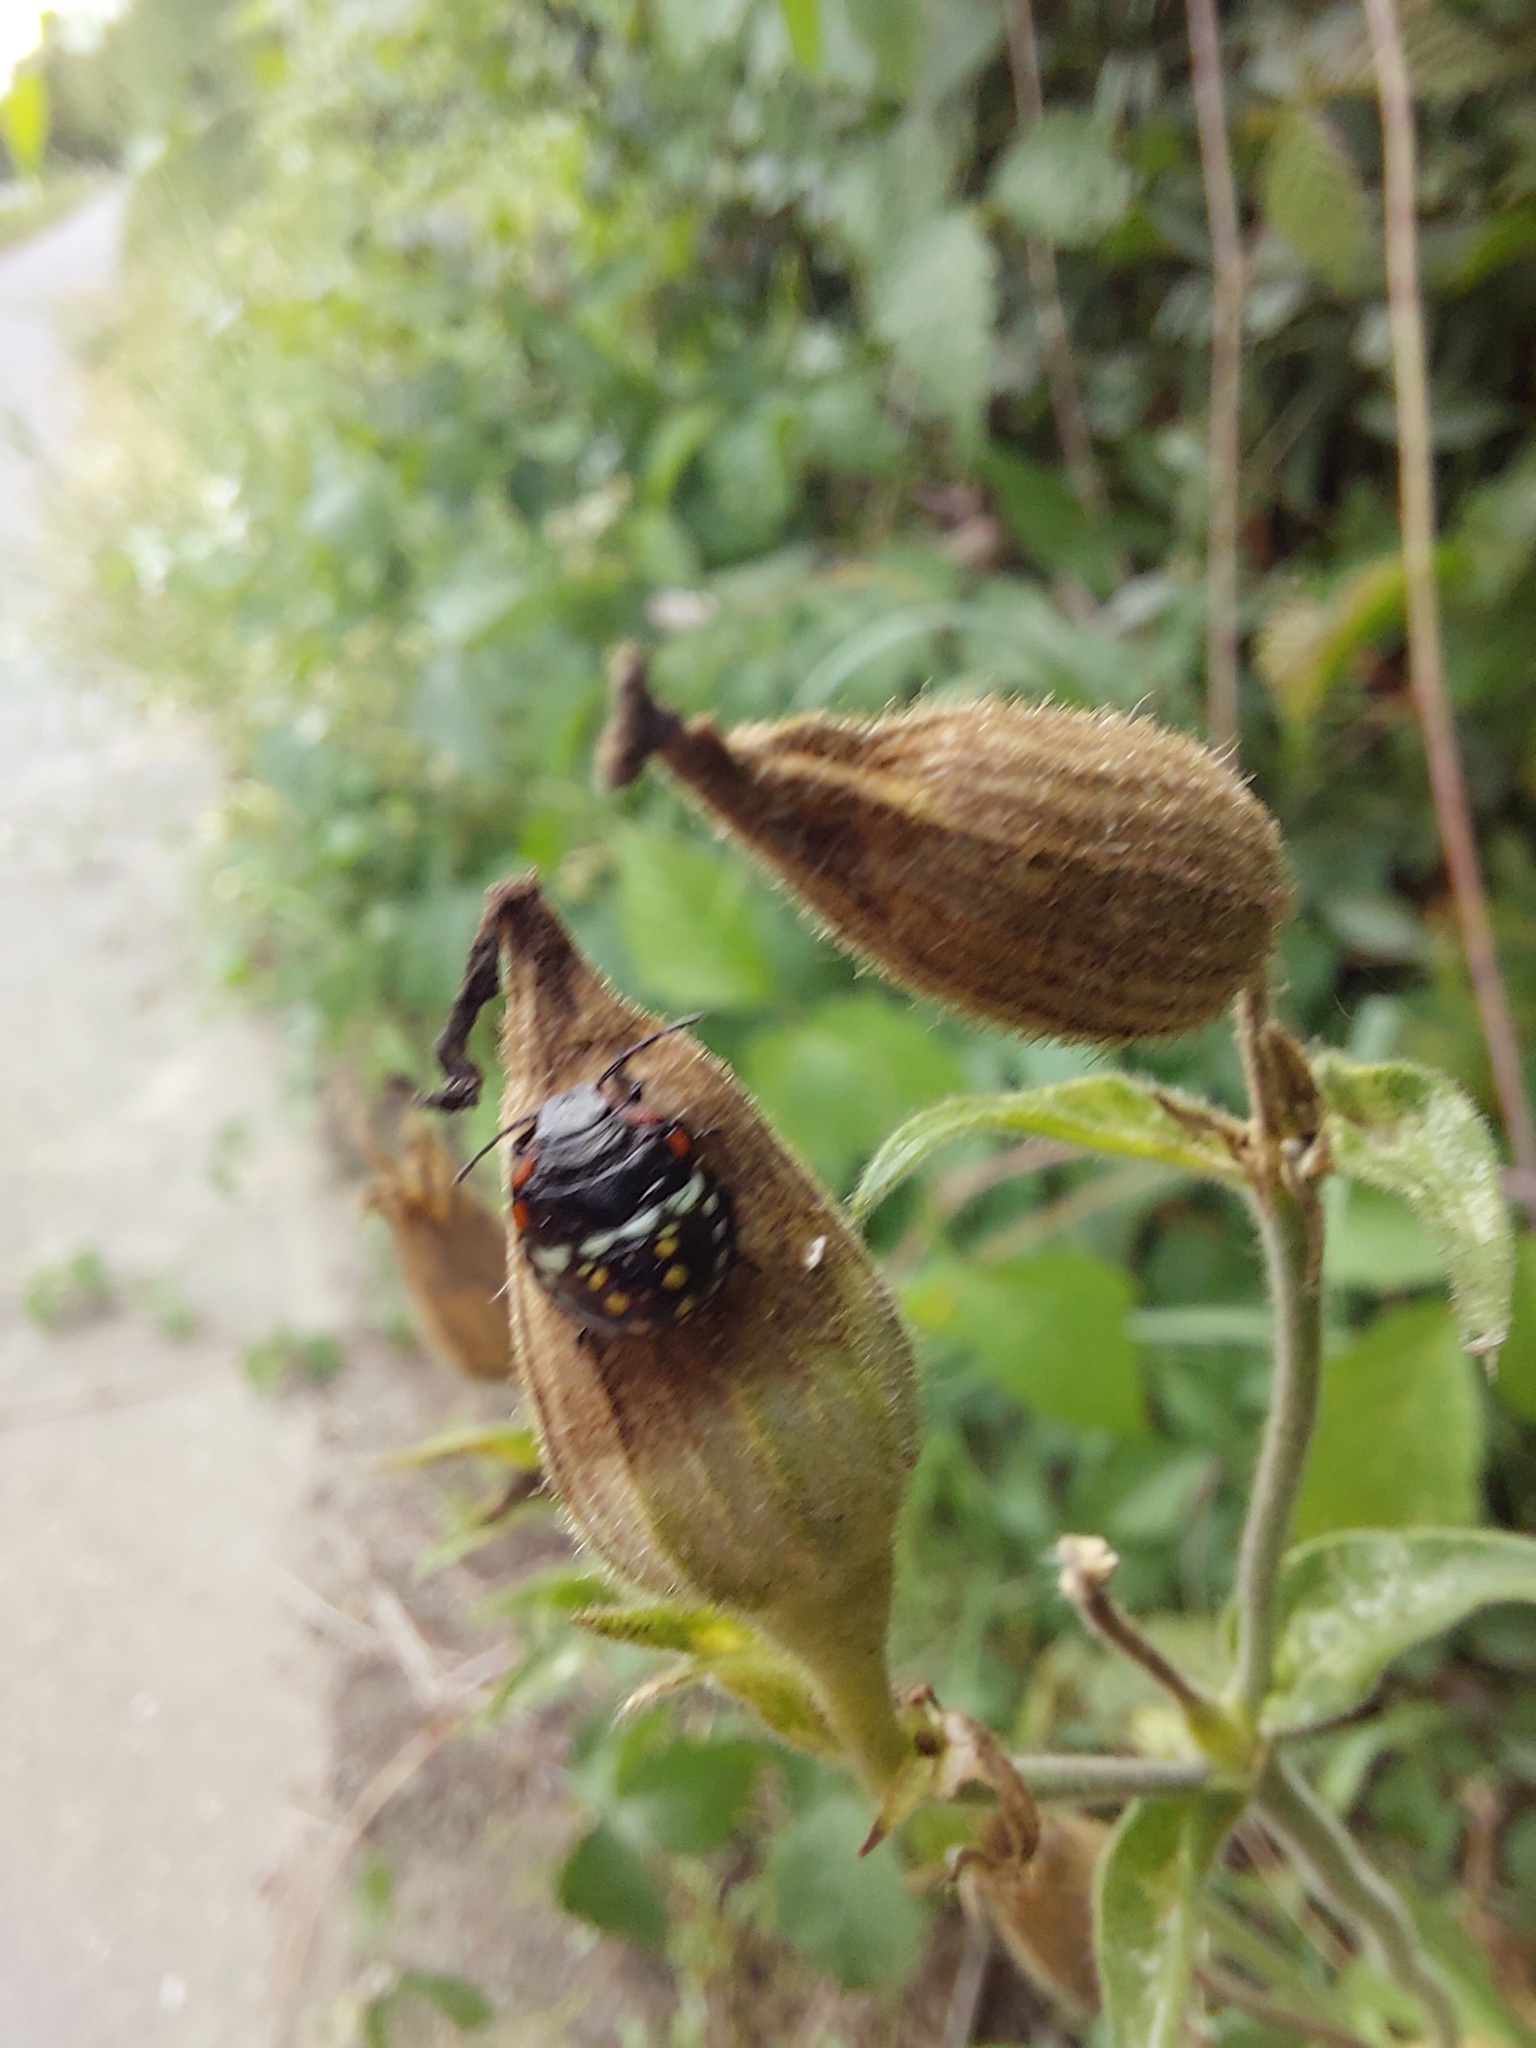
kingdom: Animalia
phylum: Arthropoda
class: Insecta
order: Hemiptera
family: Pentatomidae
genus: Nezara
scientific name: Nezara viridula
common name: Southern green stink bug
